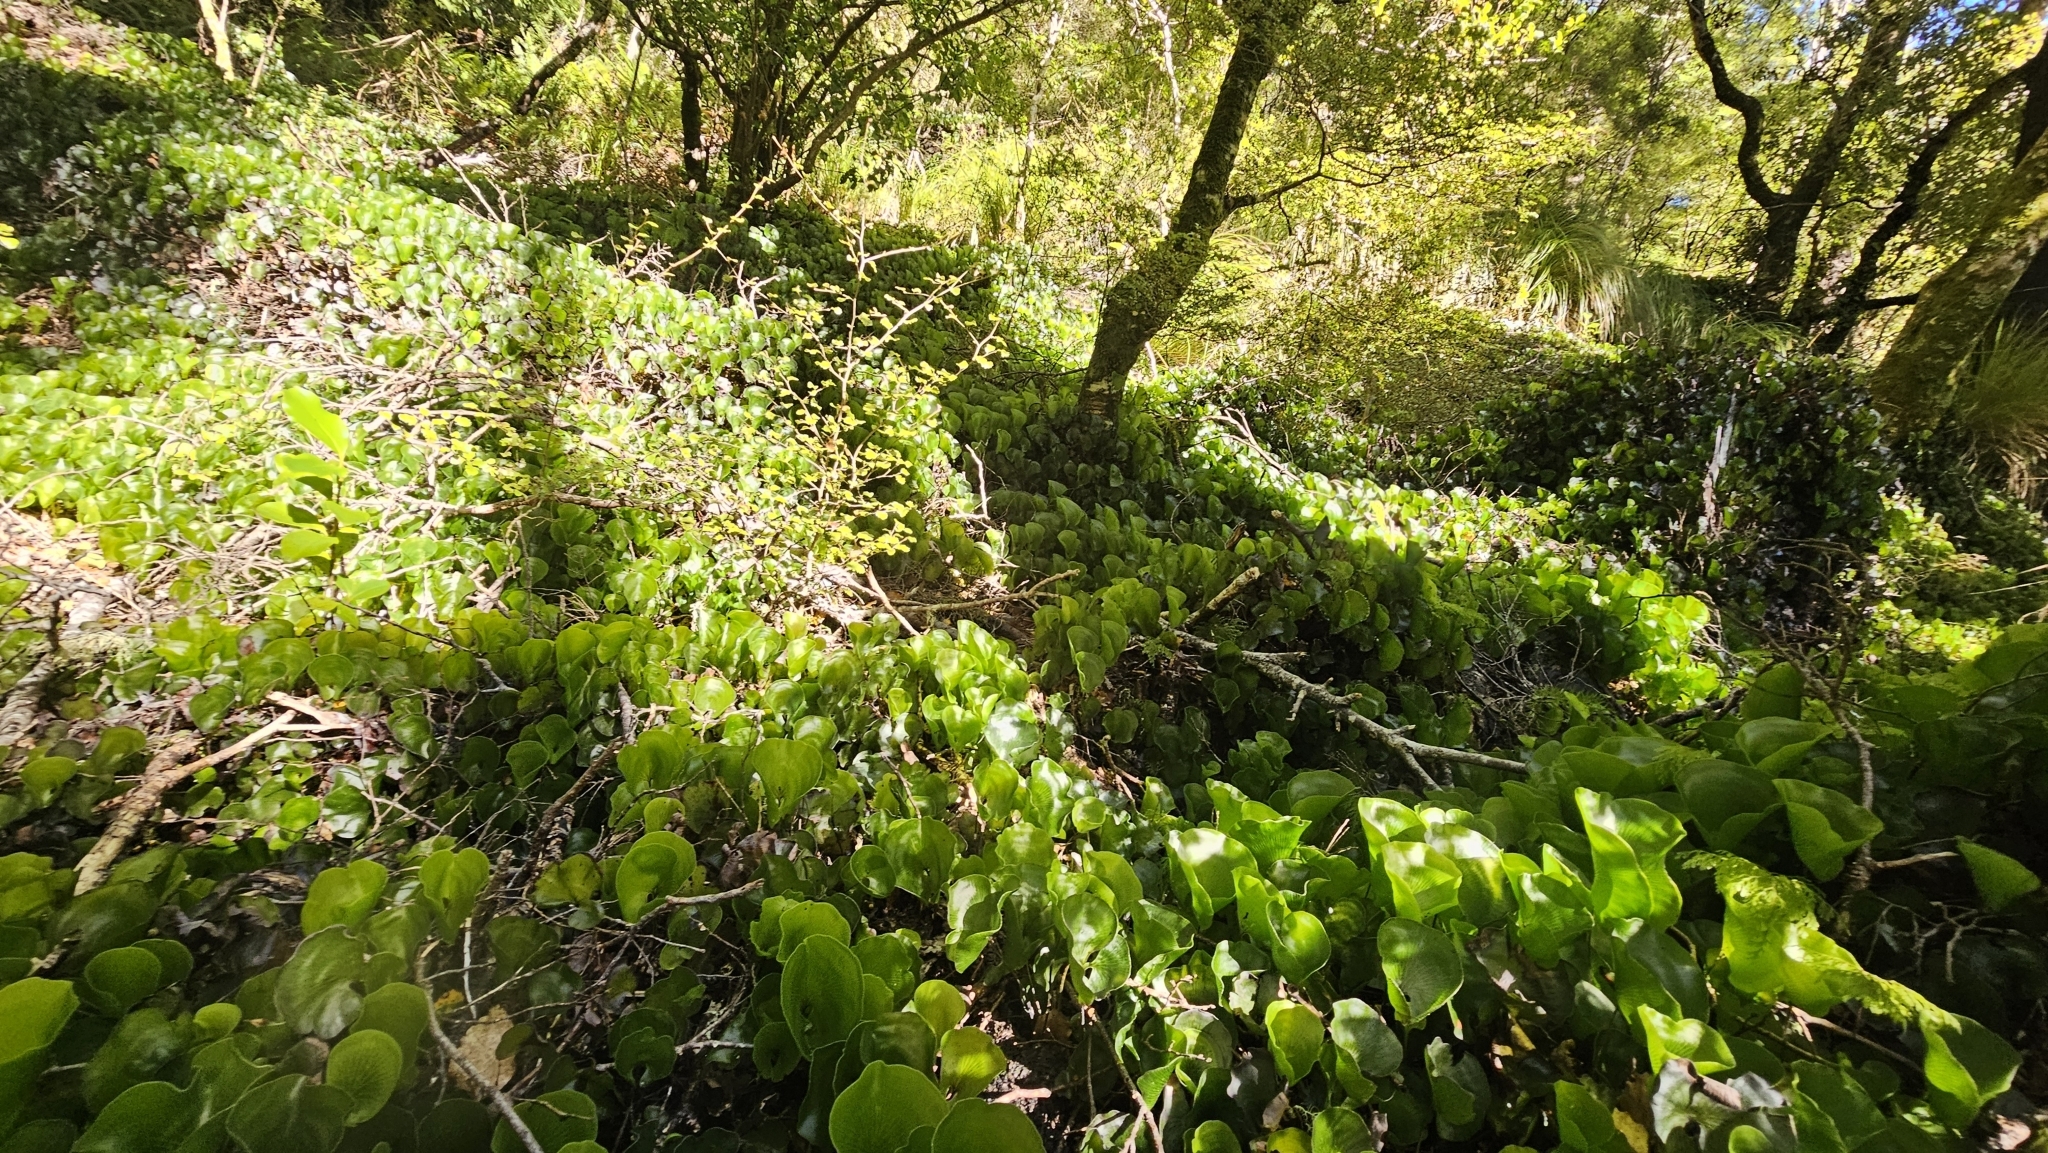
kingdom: Plantae
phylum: Tracheophyta
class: Polypodiopsida
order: Hymenophyllales
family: Hymenophyllaceae
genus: Hymenophyllum
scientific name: Hymenophyllum nephrophyllum
